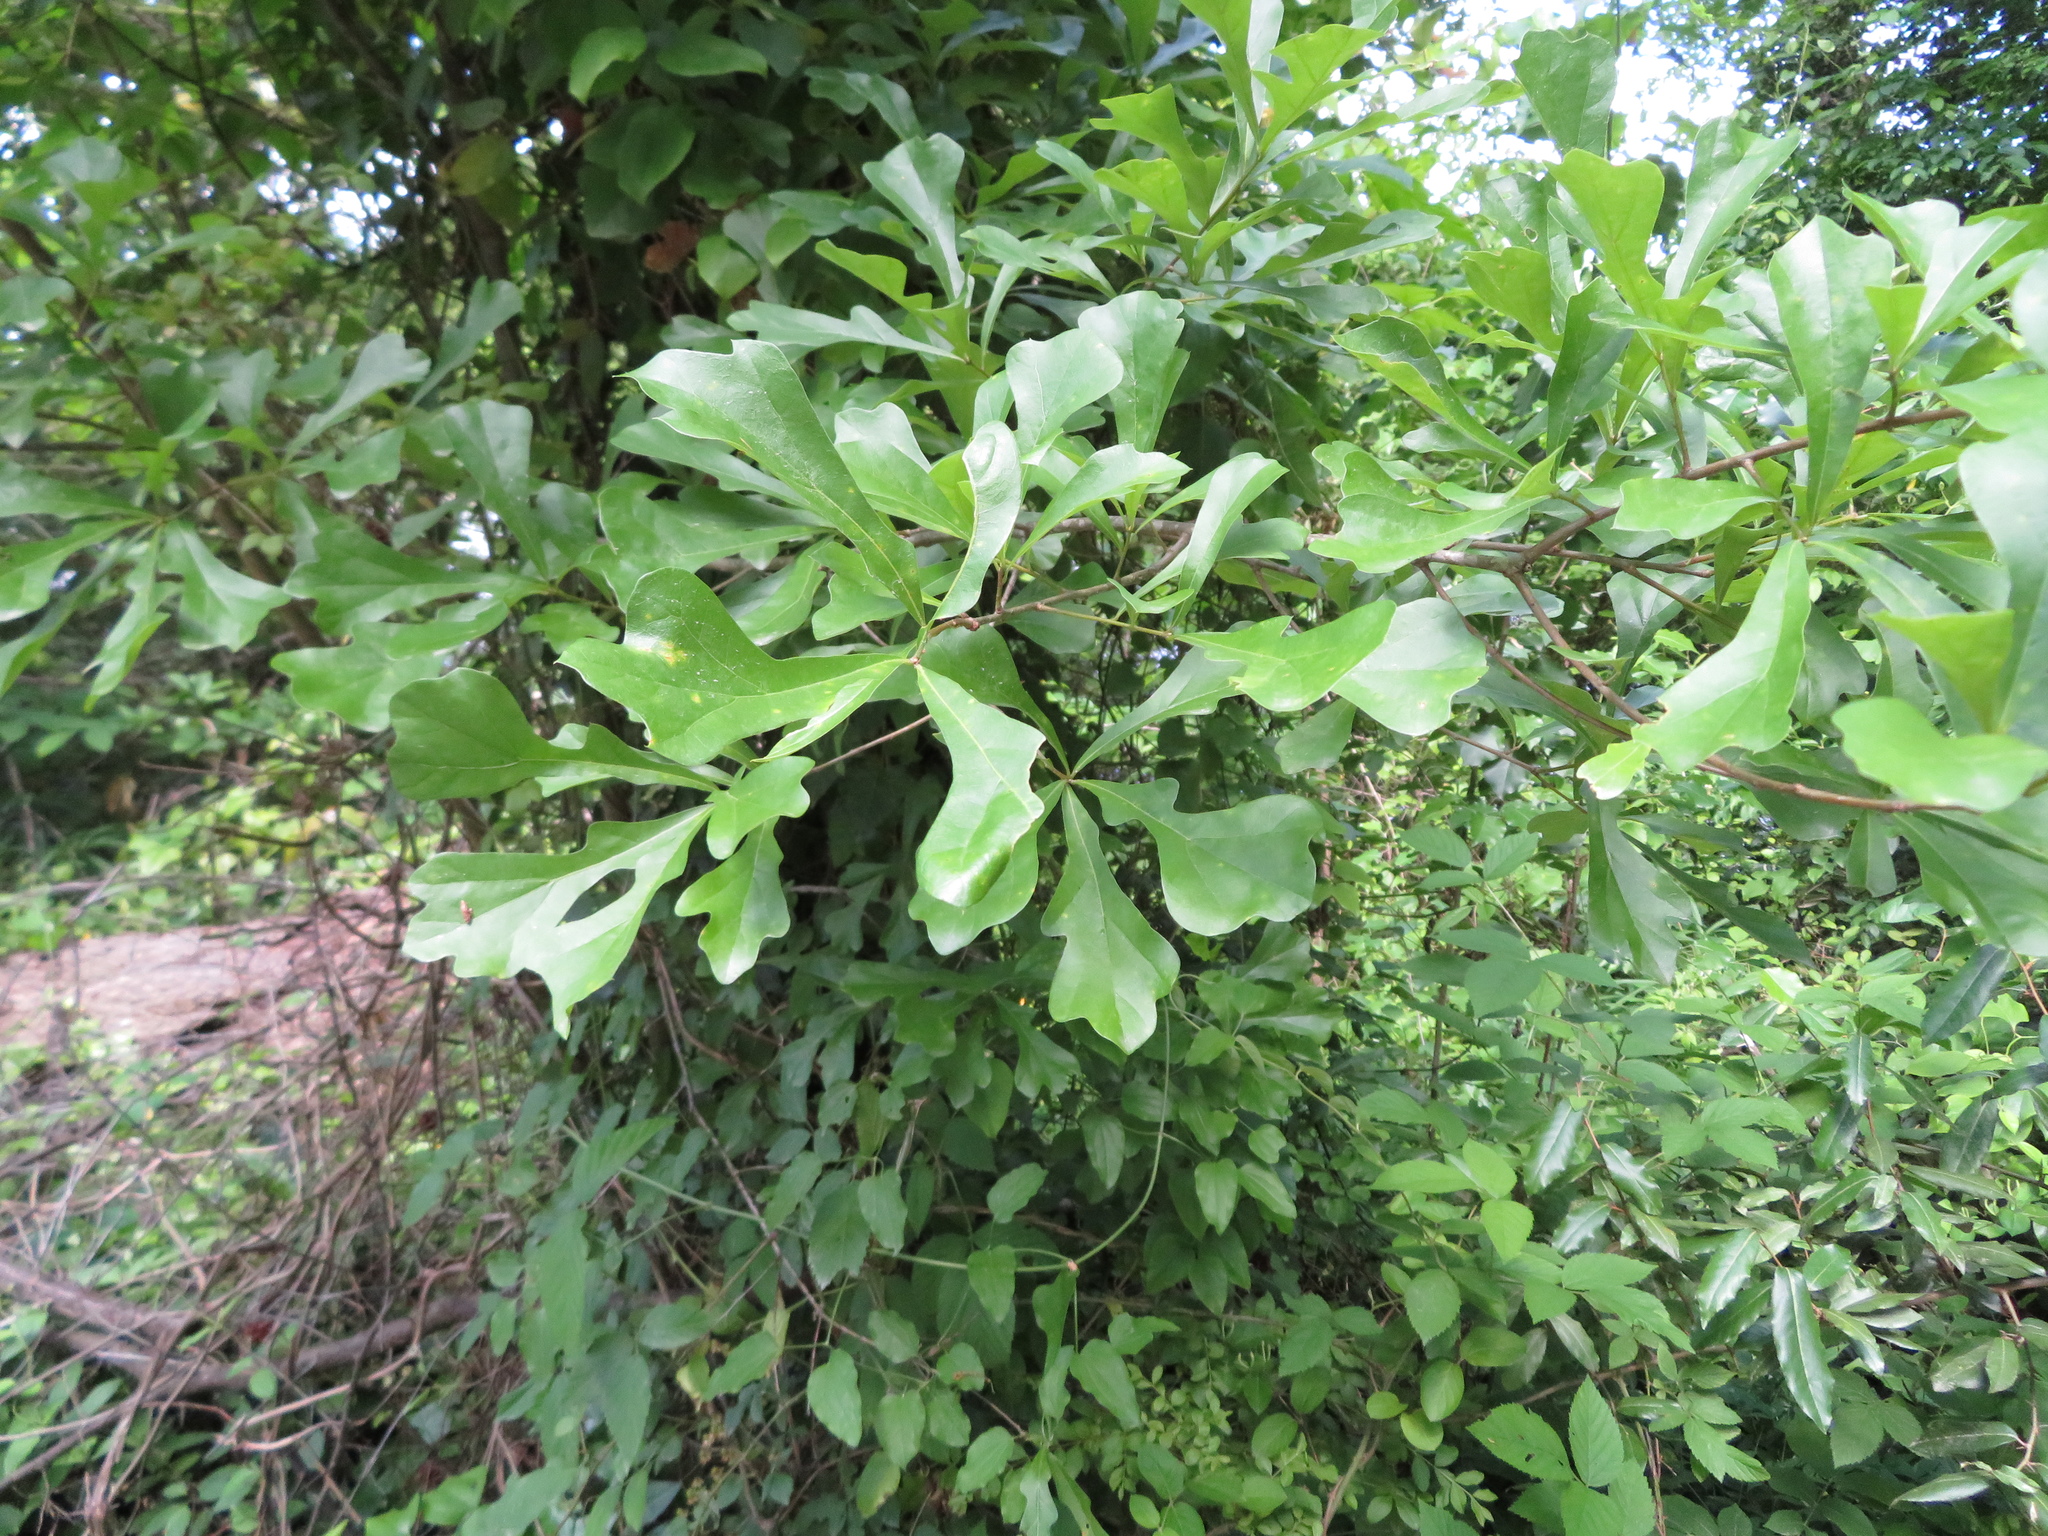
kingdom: Plantae
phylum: Tracheophyta
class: Magnoliopsida
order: Fagales
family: Fagaceae
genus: Quercus
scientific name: Quercus nigra
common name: Water oak
